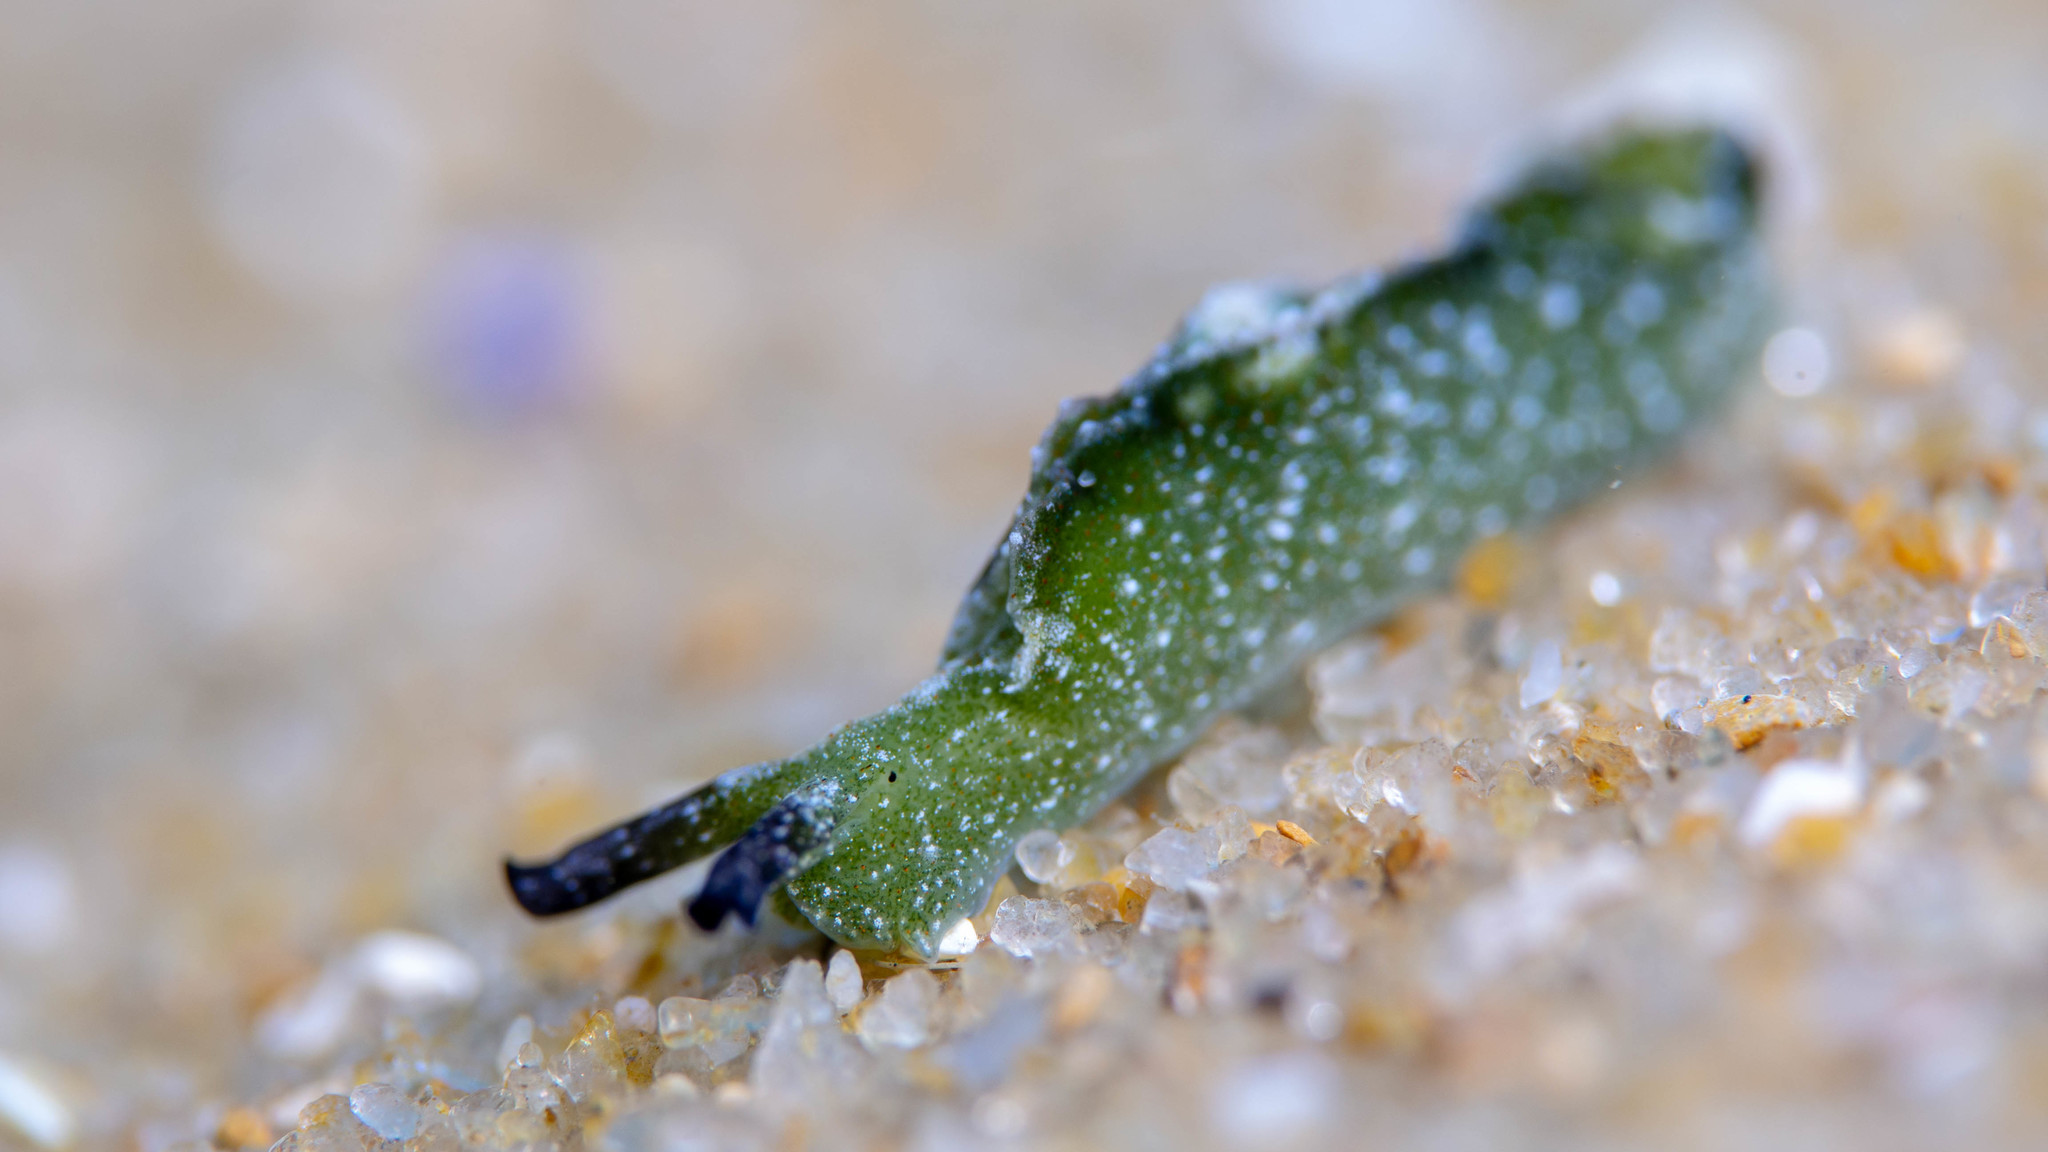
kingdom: Animalia
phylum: Mollusca
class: Gastropoda
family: Plakobranchidae
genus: Elysia
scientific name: Elysia maoria
